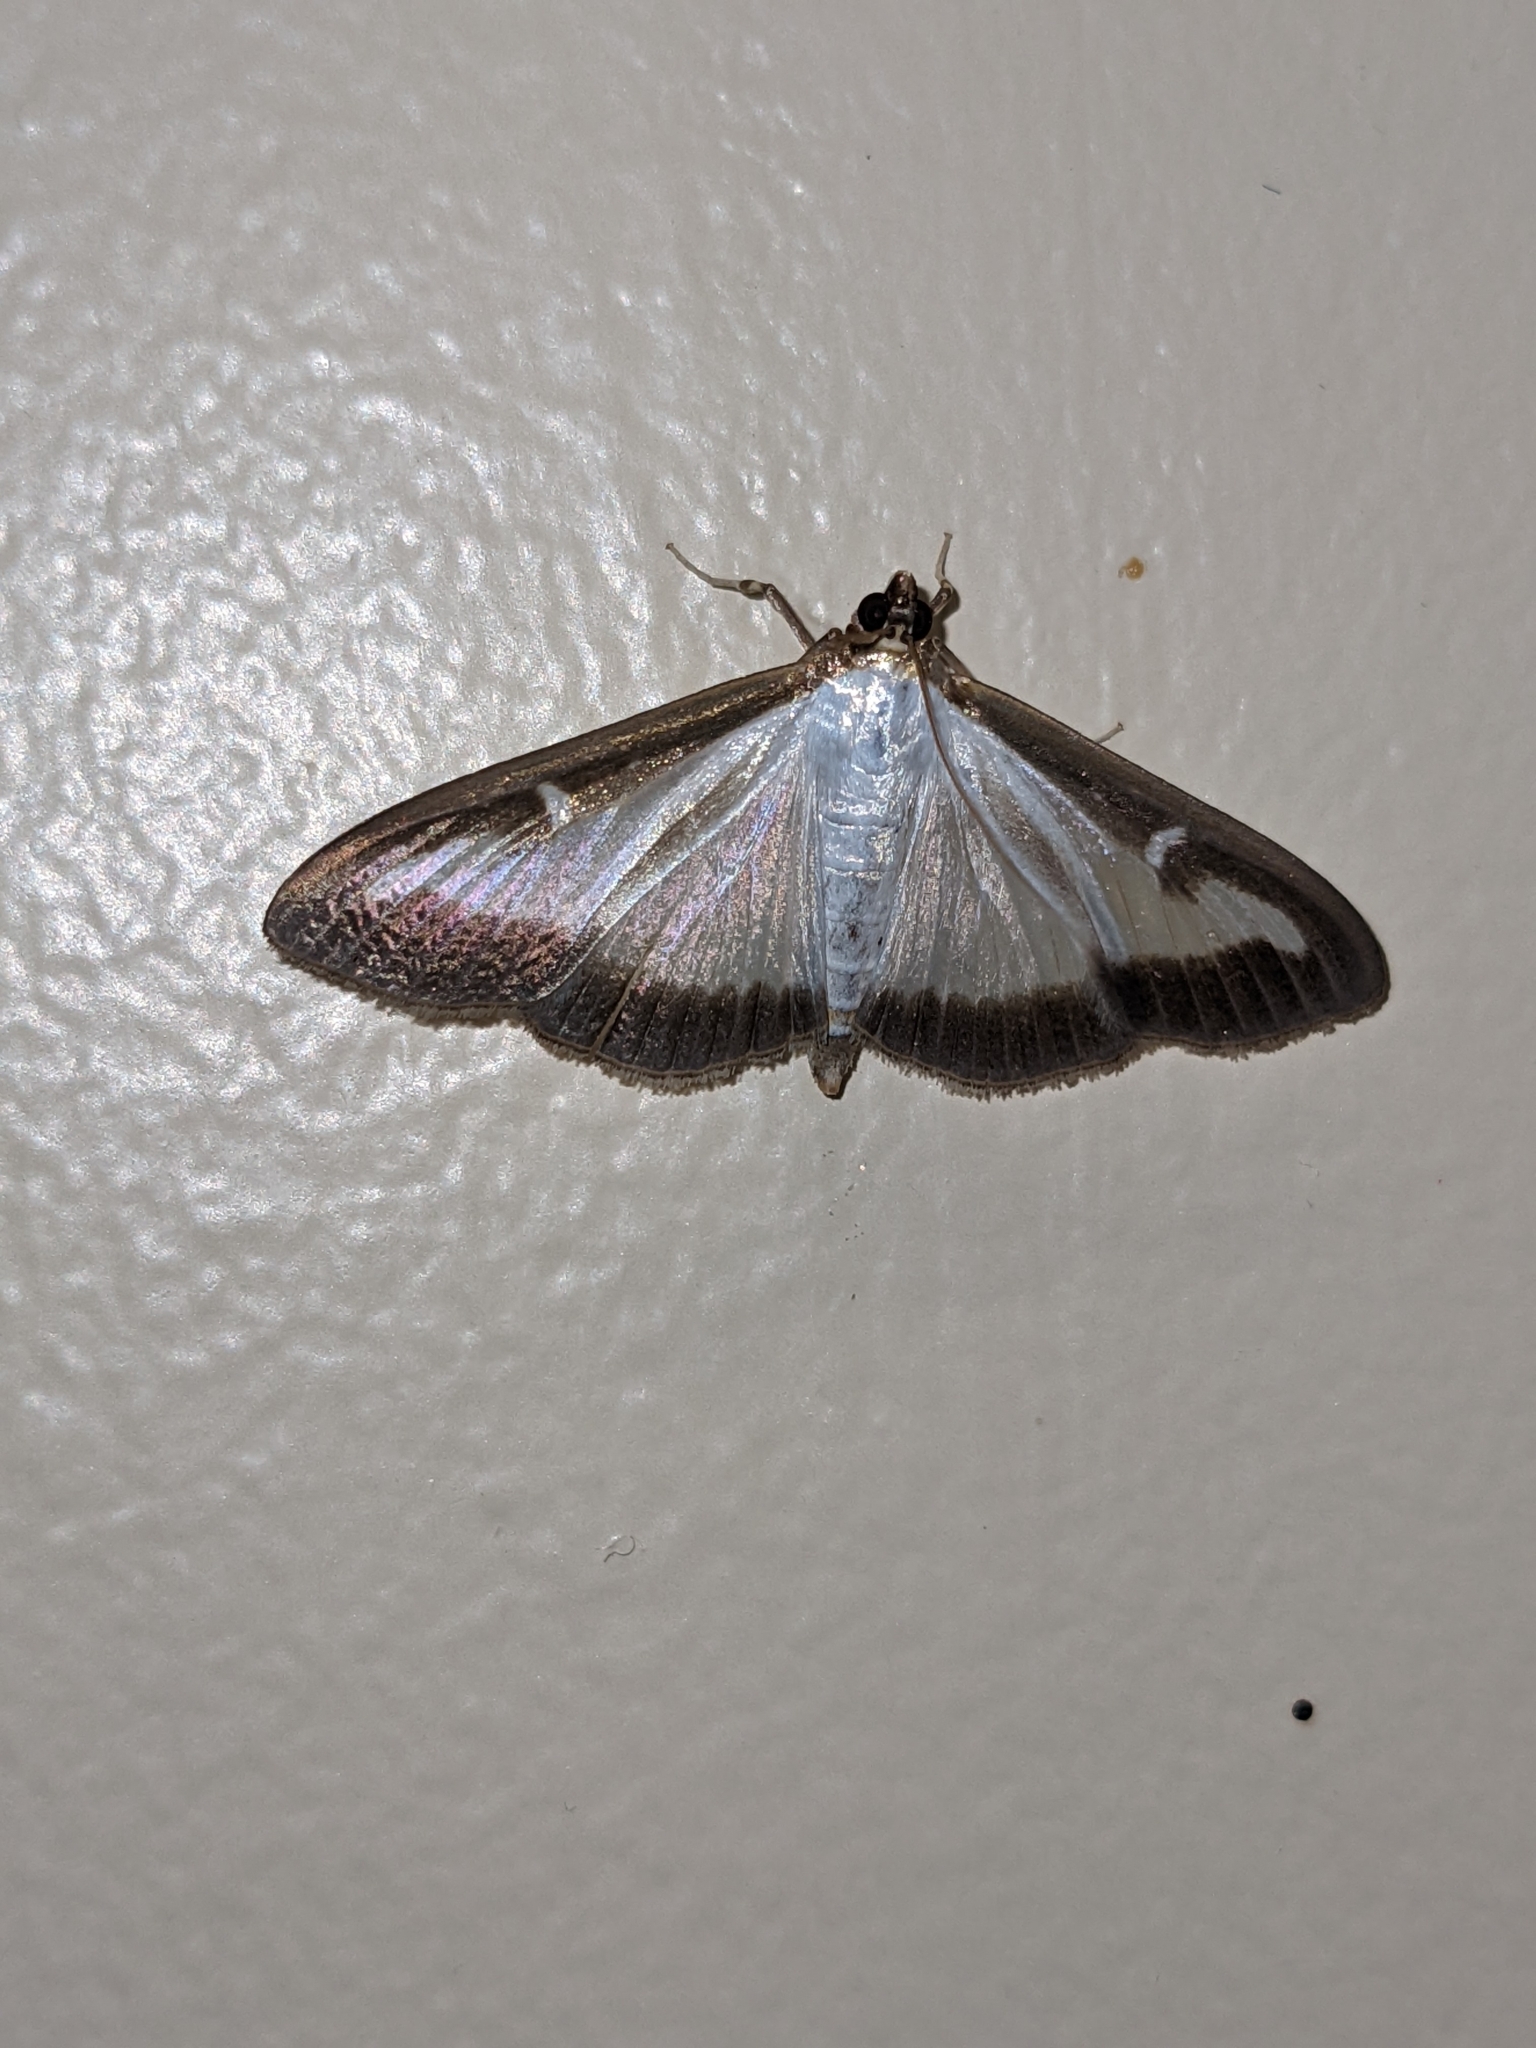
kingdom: Animalia
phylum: Arthropoda
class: Insecta
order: Lepidoptera
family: Crambidae
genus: Cydalima
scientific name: Cydalima perspectalis
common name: Box tree moth
